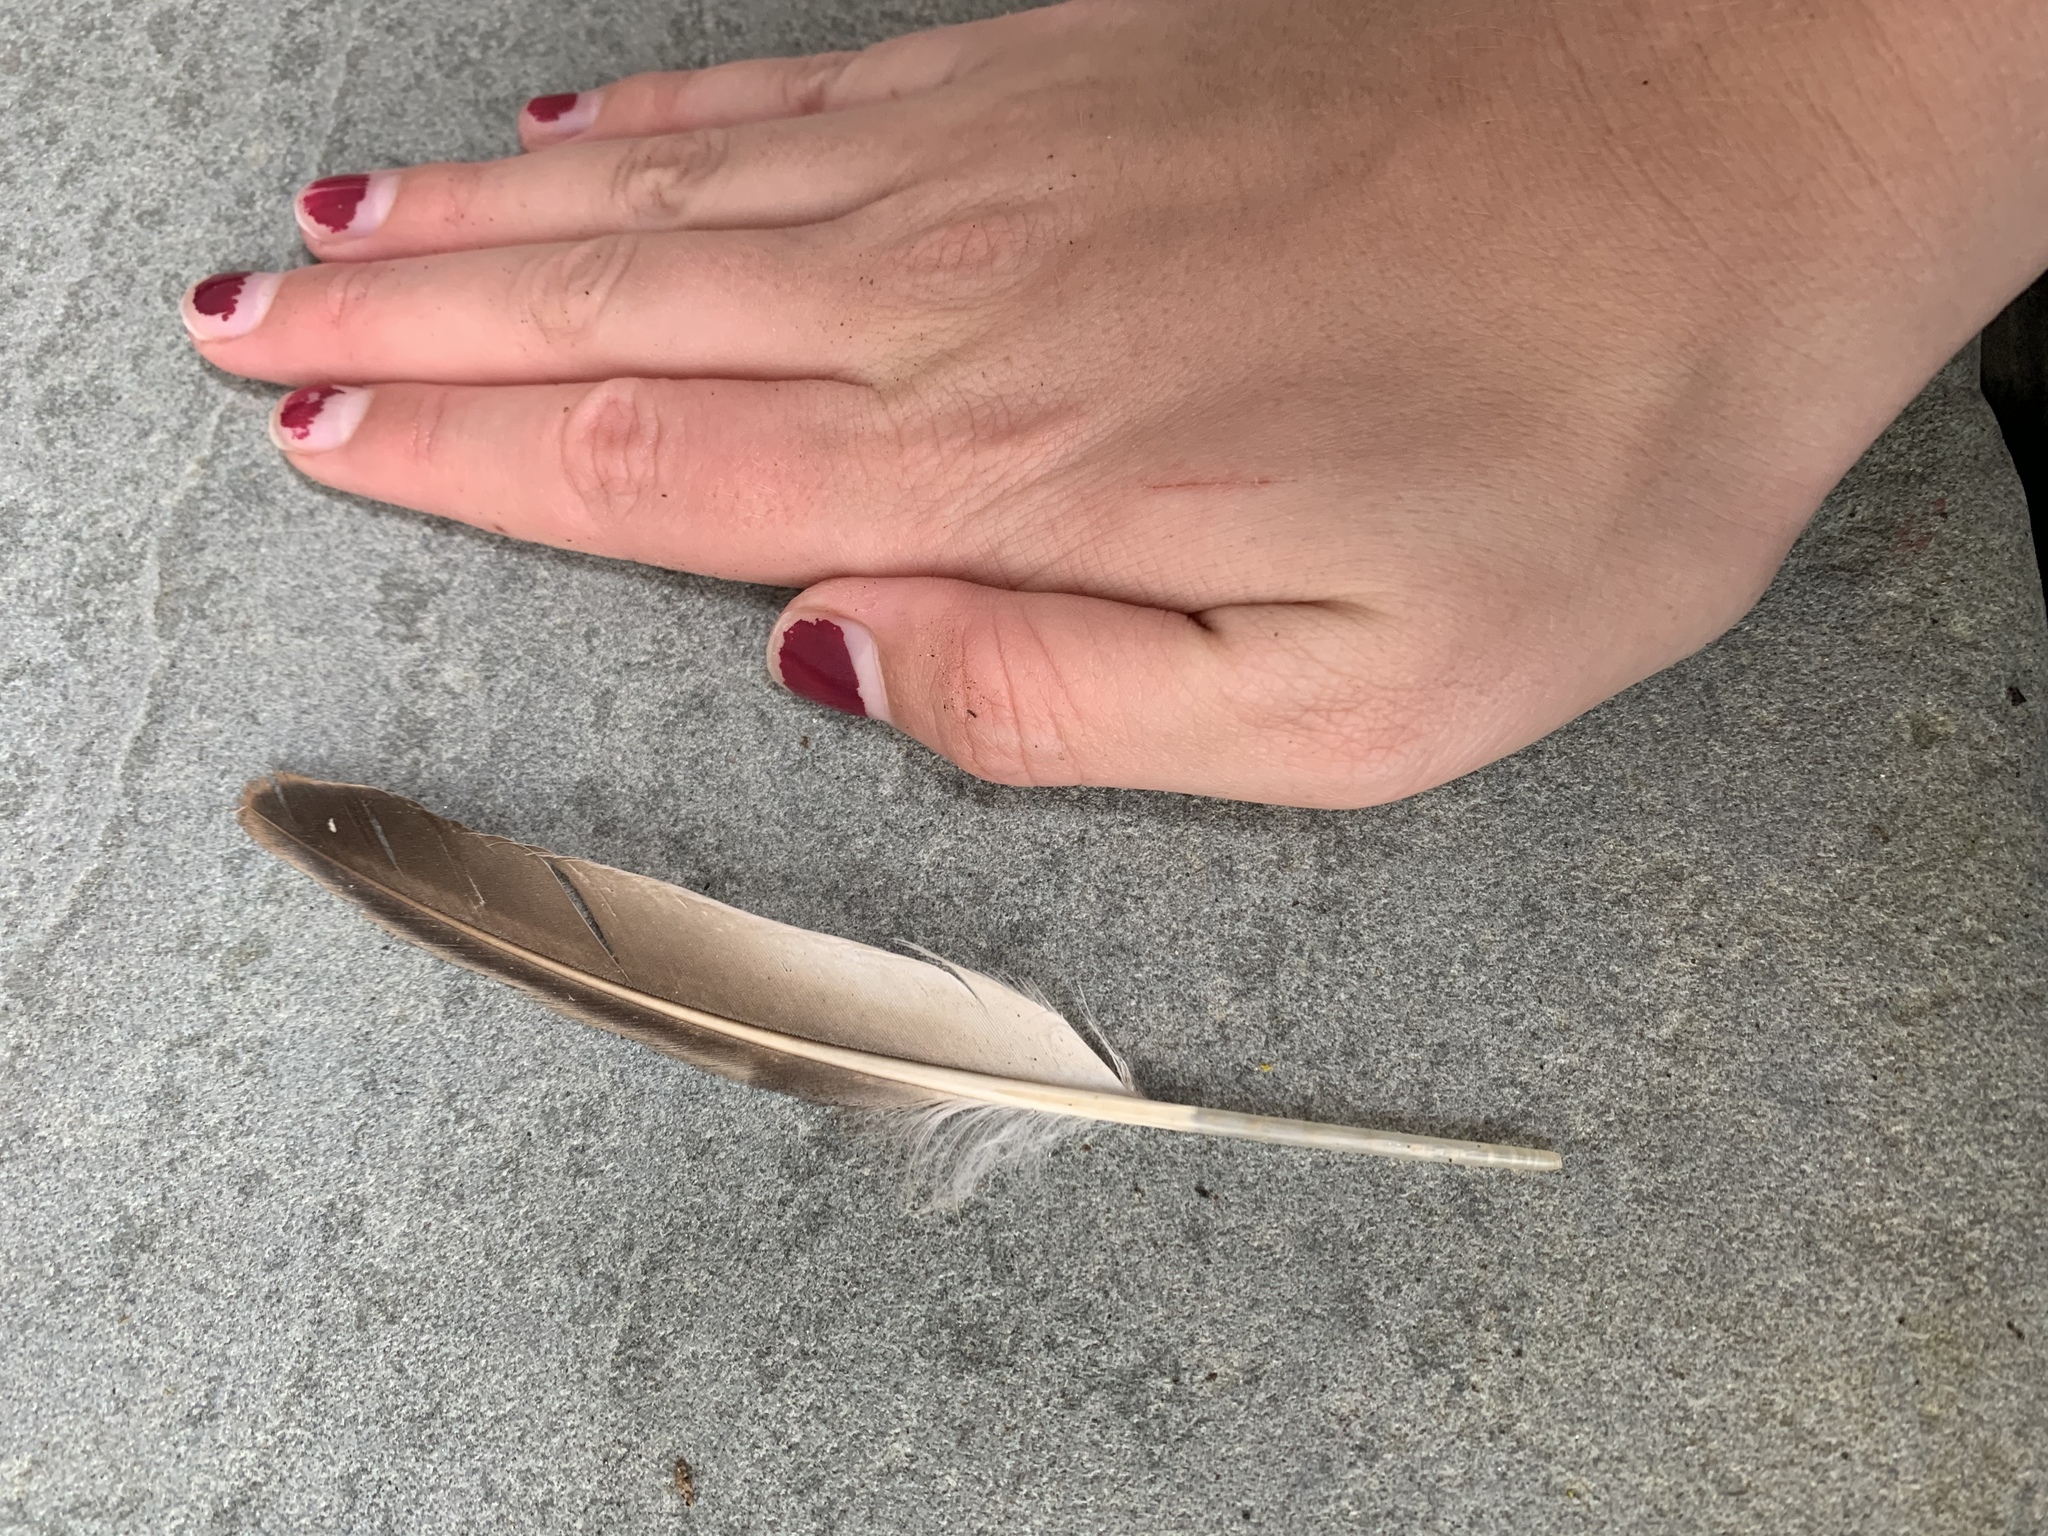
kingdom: Animalia
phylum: Chordata
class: Aves
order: Charadriiformes
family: Alcidae
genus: Uria
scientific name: Uria aalge
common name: Common murre
